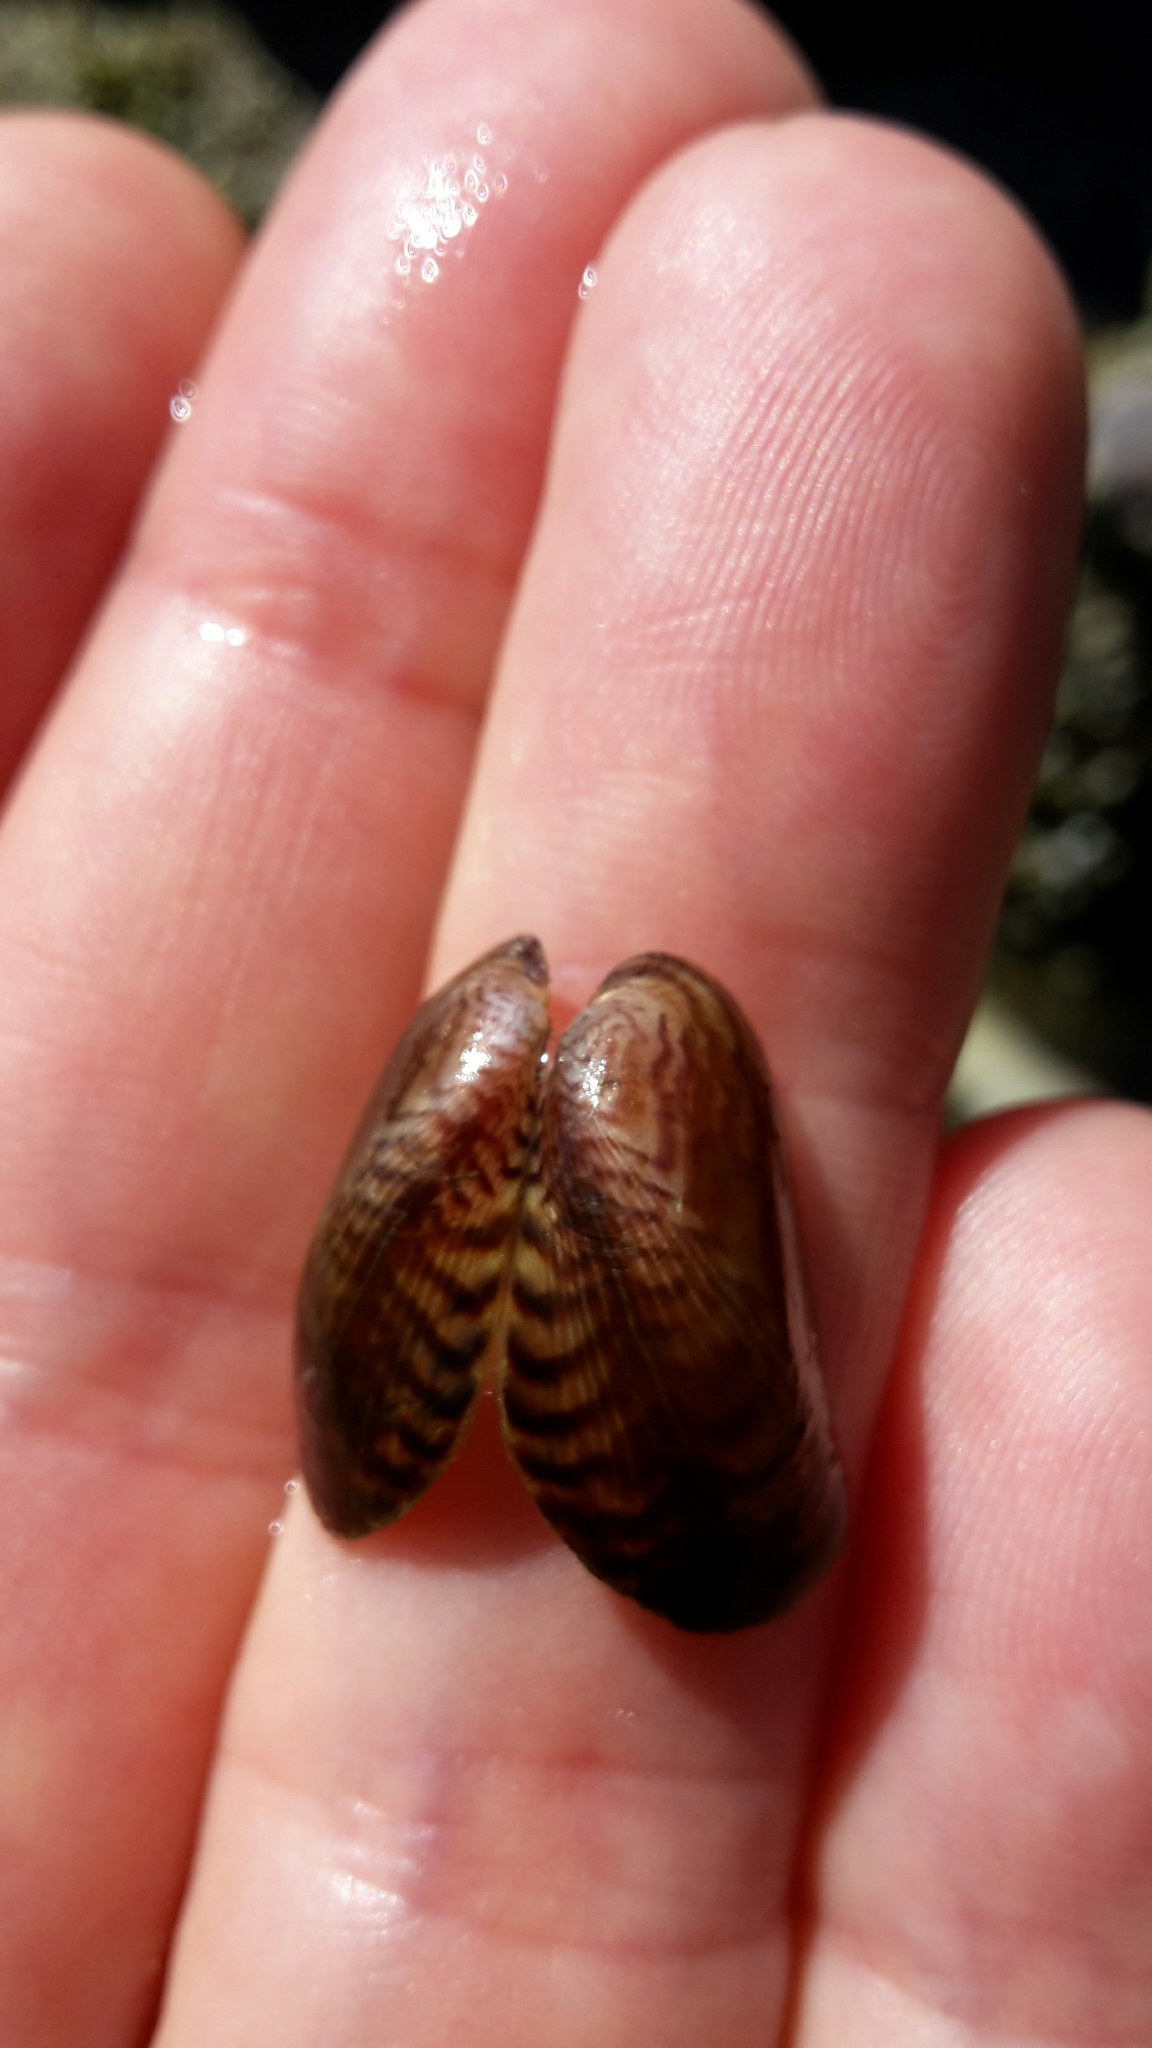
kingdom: Animalia
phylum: Mollusca
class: Bivalvia
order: Mytilida
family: Mytilidae
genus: Arcuatula
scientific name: Arcuatula senhousia
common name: Asian mussel
